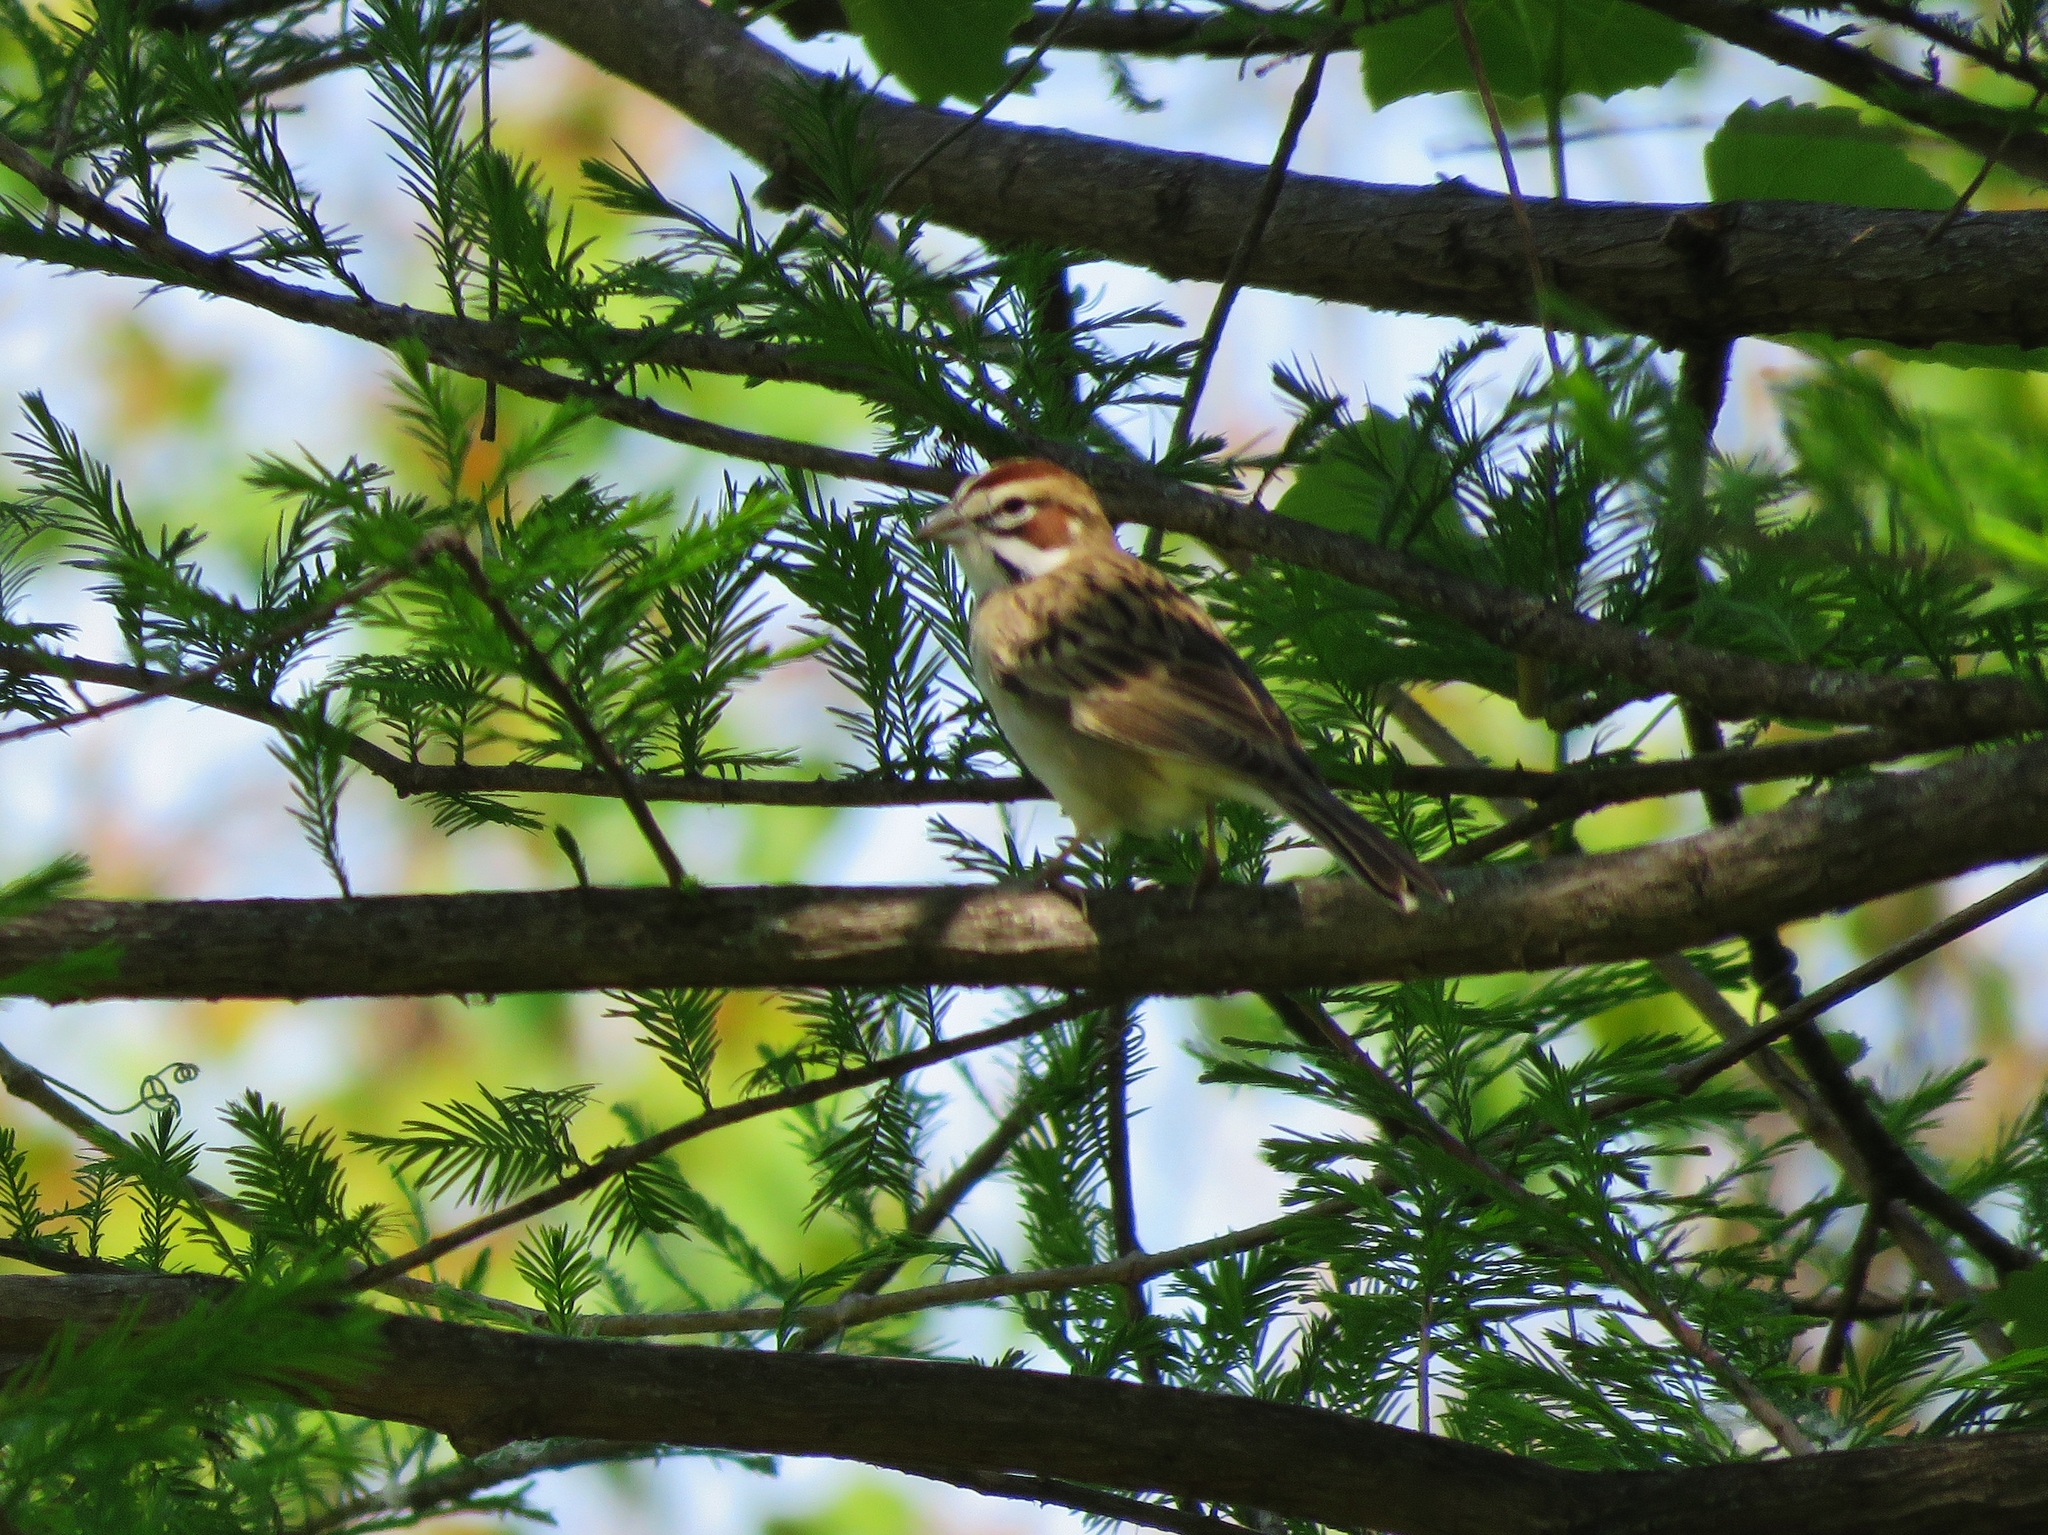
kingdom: Animalia
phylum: Chordata
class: Aves
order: Passeriformes
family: Passerellidae
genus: Chondestes
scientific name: Chondestes grammacus
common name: Lark sparrow
